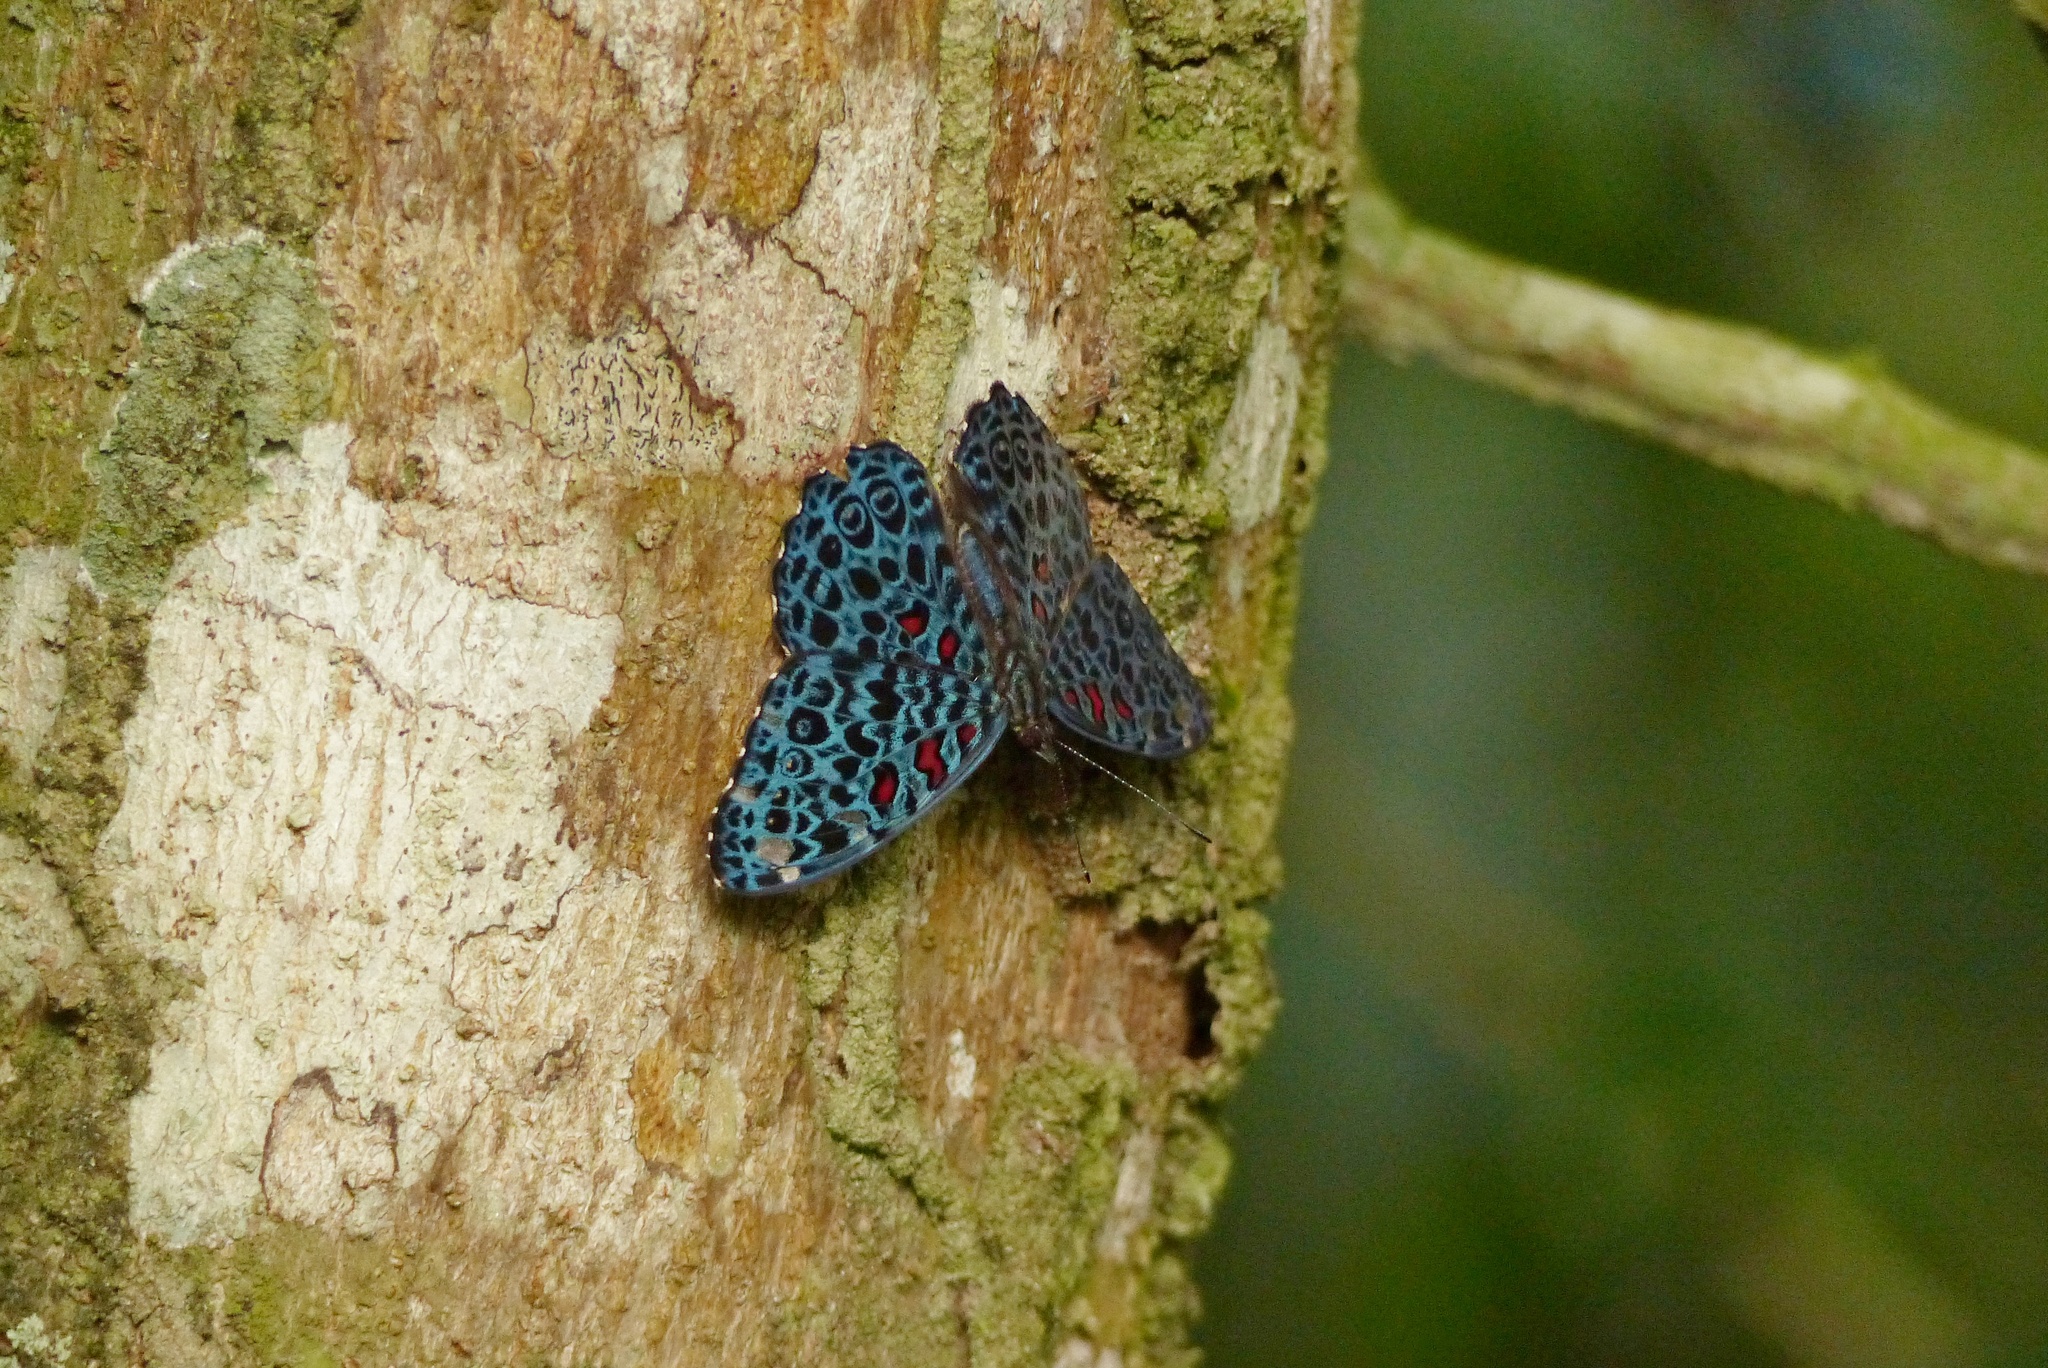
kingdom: Animalia
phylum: Arthropoda
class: Insecta
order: Lepidoptera
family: Nymphalidae
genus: Hamadryas
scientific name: Hamadryas chloe
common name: Amazon cracker
